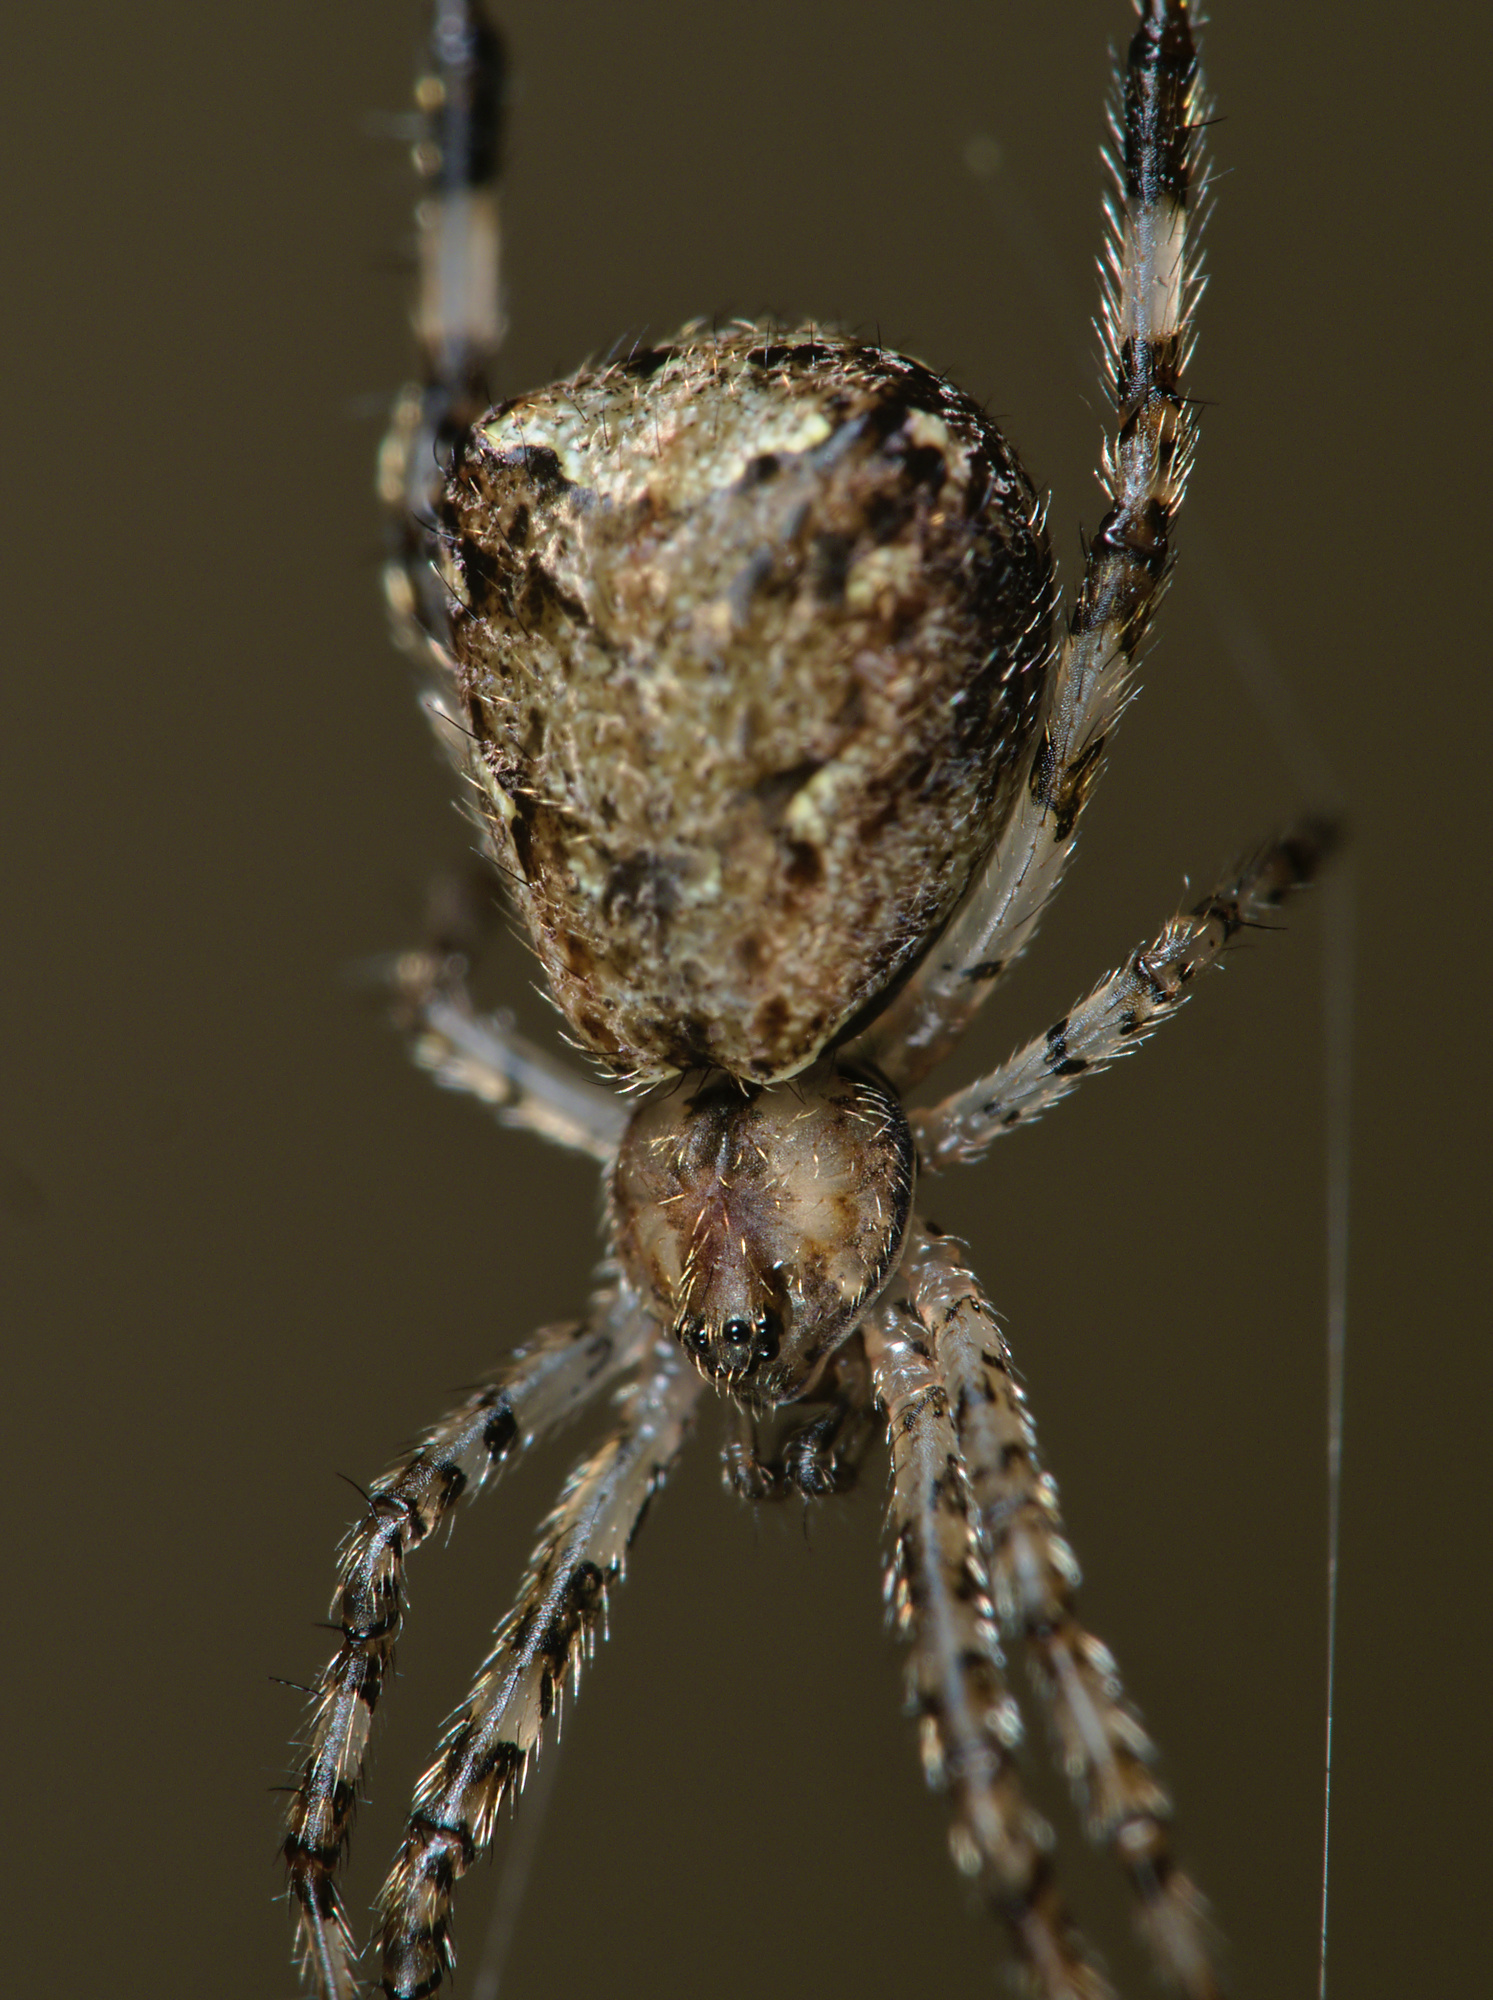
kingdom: Animalia
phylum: Arthropoda
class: Arachnida
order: Araneae
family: Theridiidae
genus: Episinus
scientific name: Episinus maculipes
